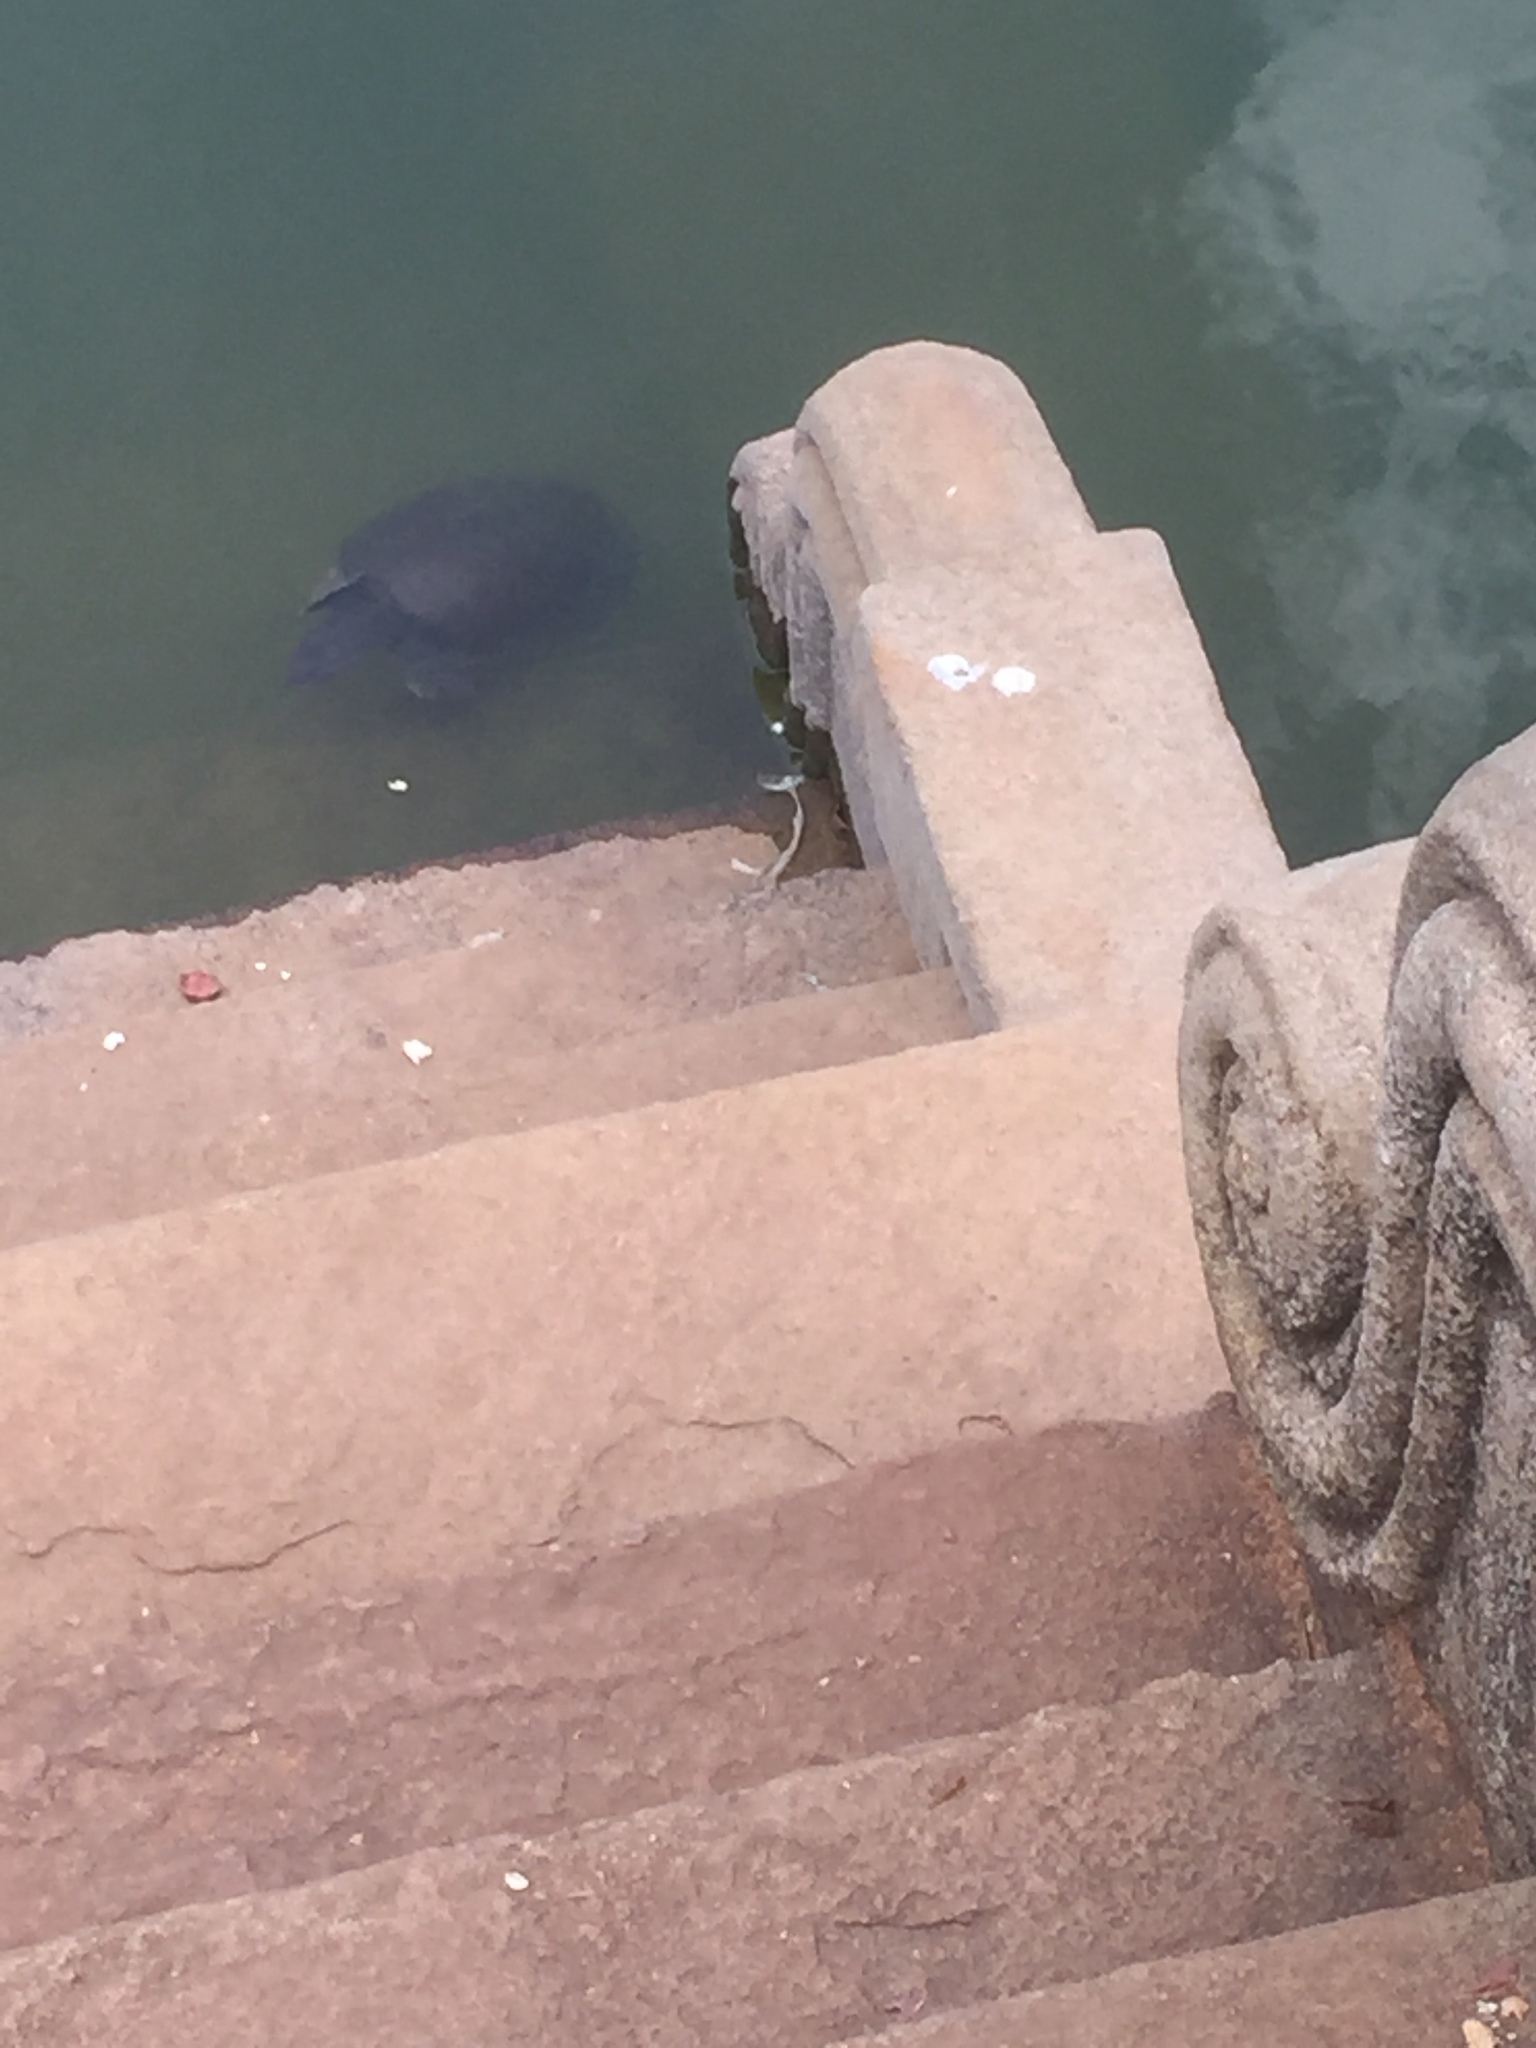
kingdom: Animalia
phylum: Chordata
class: Testudines
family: Trionychidae
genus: Lissemys
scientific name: Lissemys ceylonensis
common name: Sri lankan flapshell turtle
